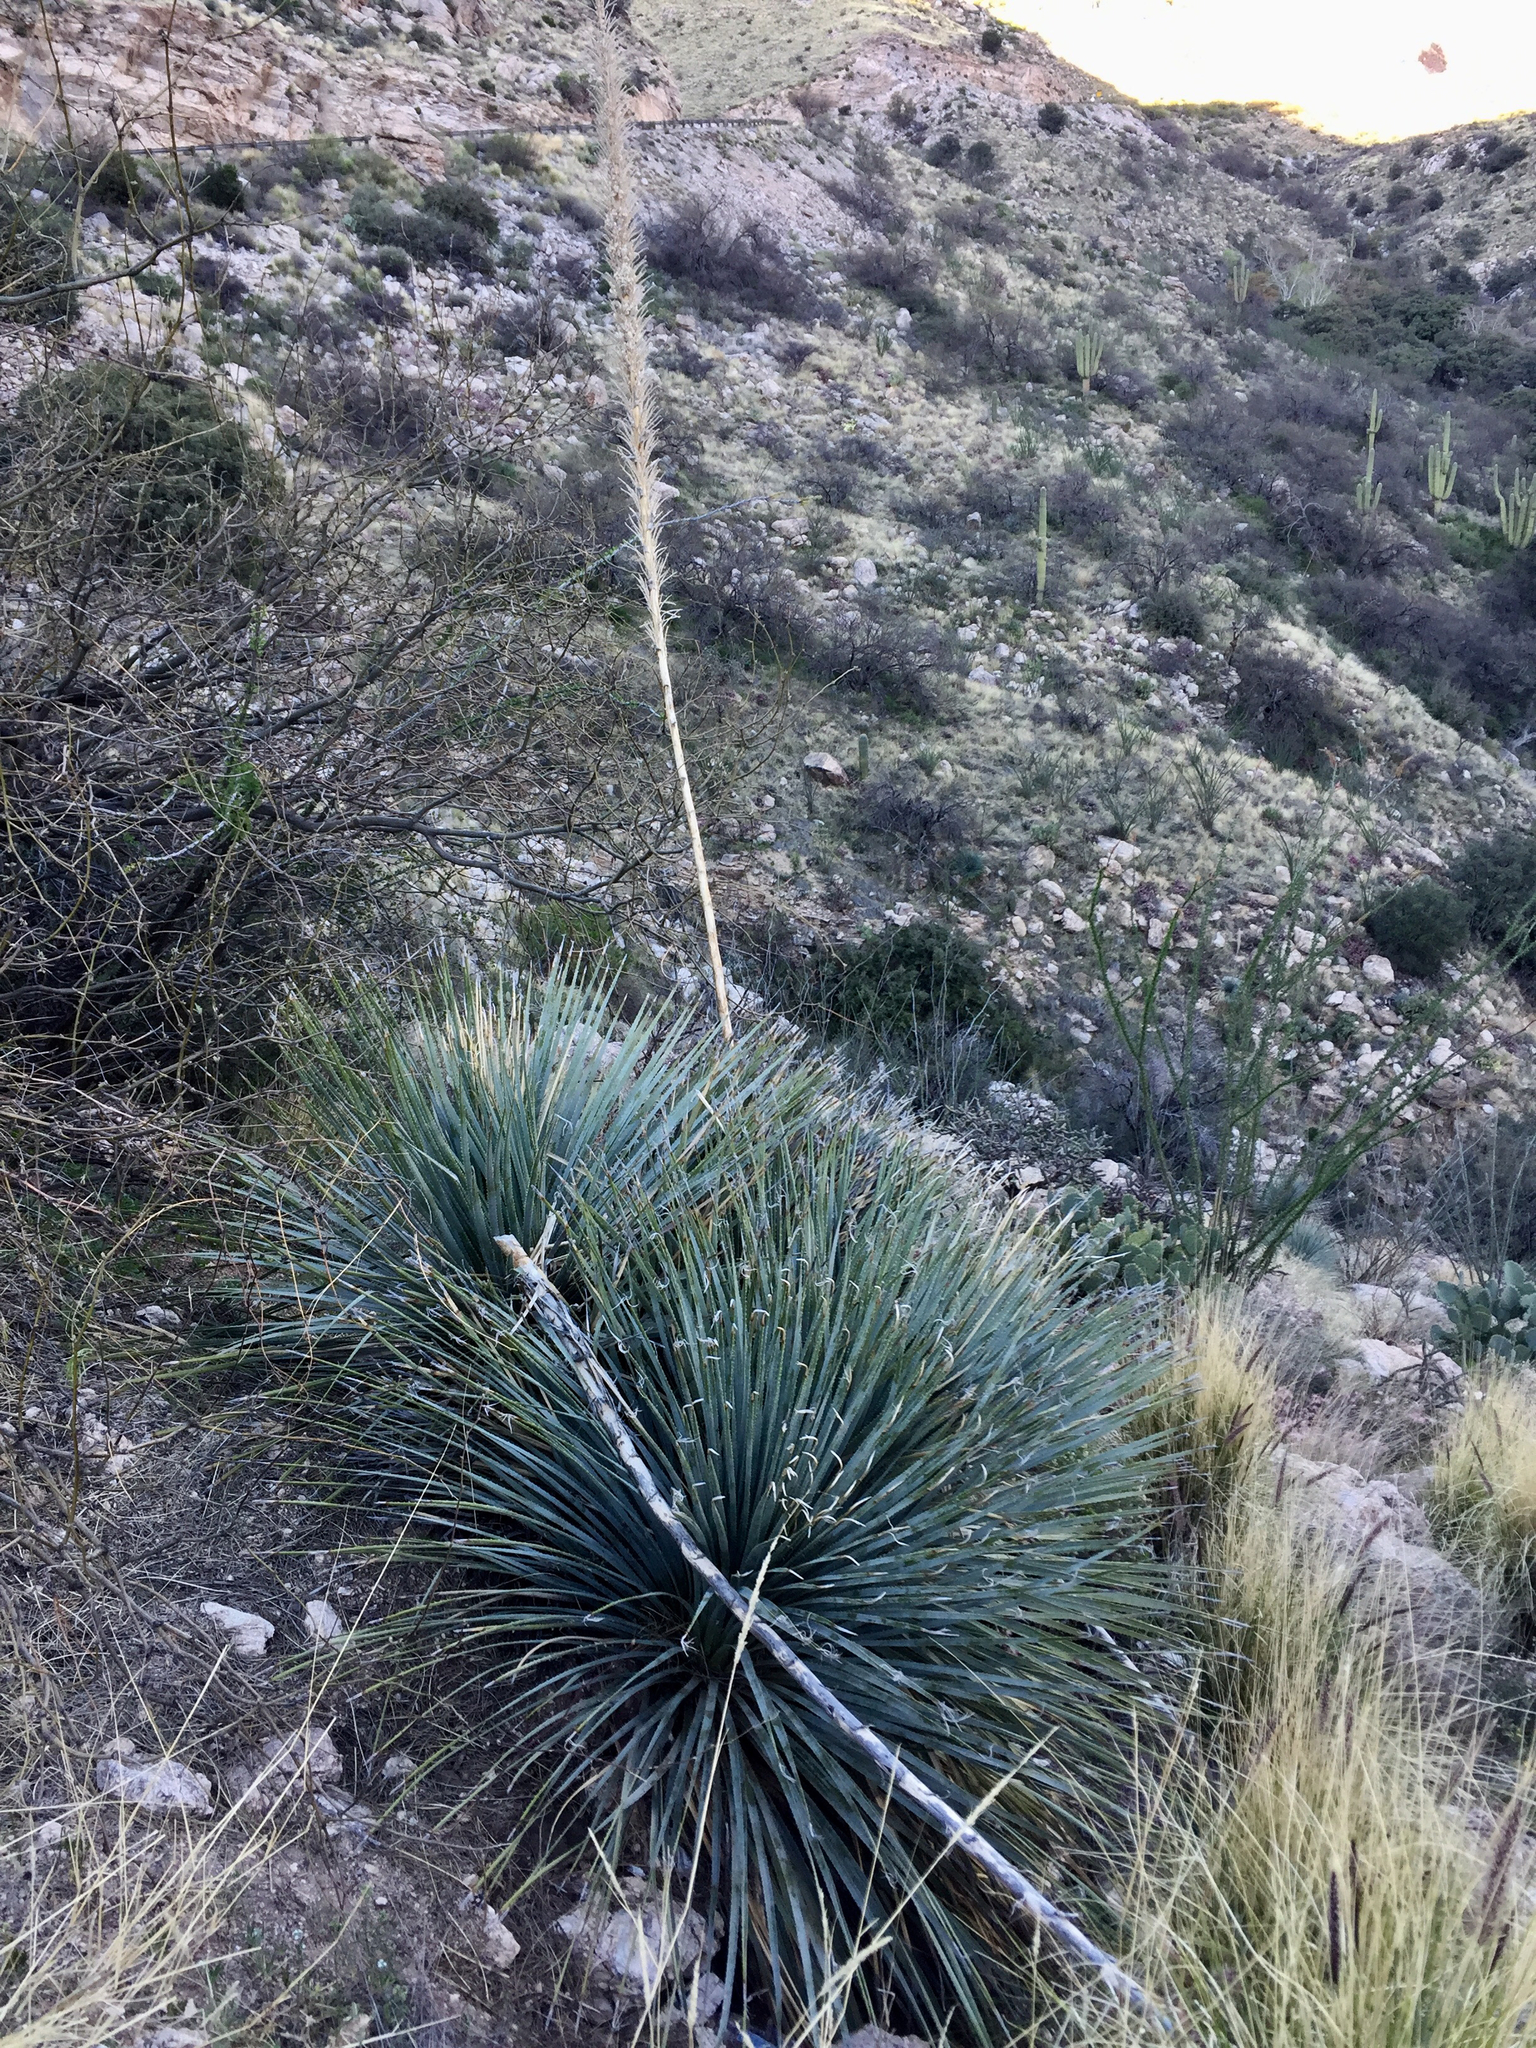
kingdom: Plantae
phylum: Tracheophyta
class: Liliopsida
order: Asparagales
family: Asparagaceae
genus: Dasylirion
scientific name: Dasylirion wheeleri
